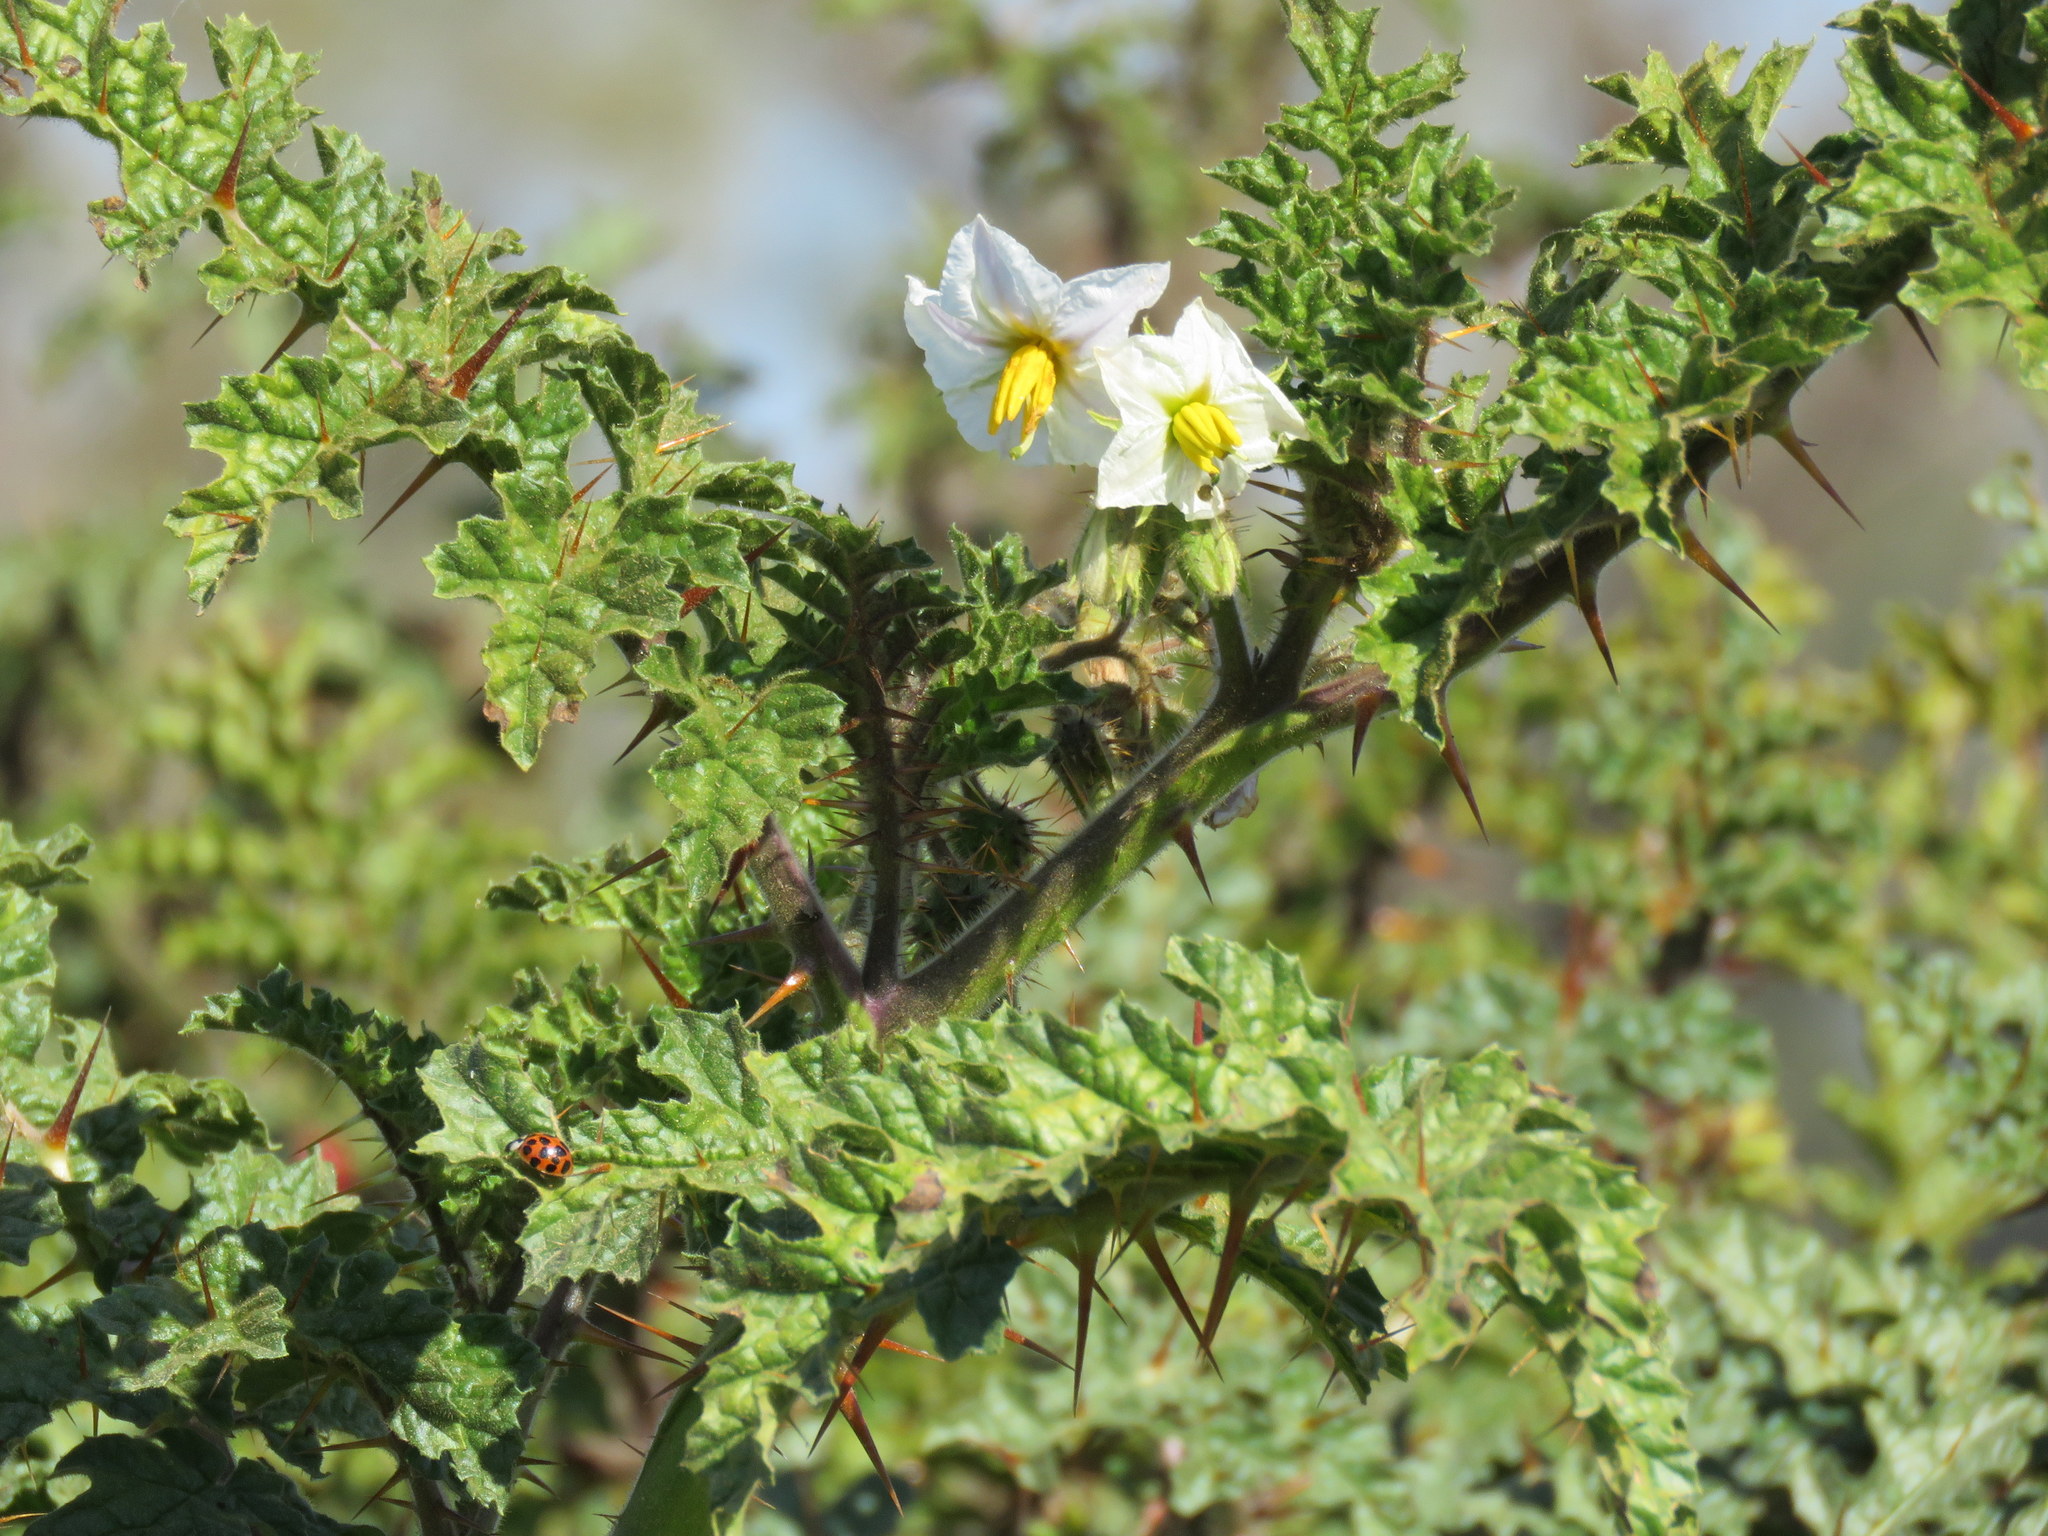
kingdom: Plantae
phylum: Tracheophyta
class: Magnoliopsida
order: Solanales
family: Solanaceae
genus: Solanum
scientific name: Solanum sisymbriifolium
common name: Red buffalo-bur
